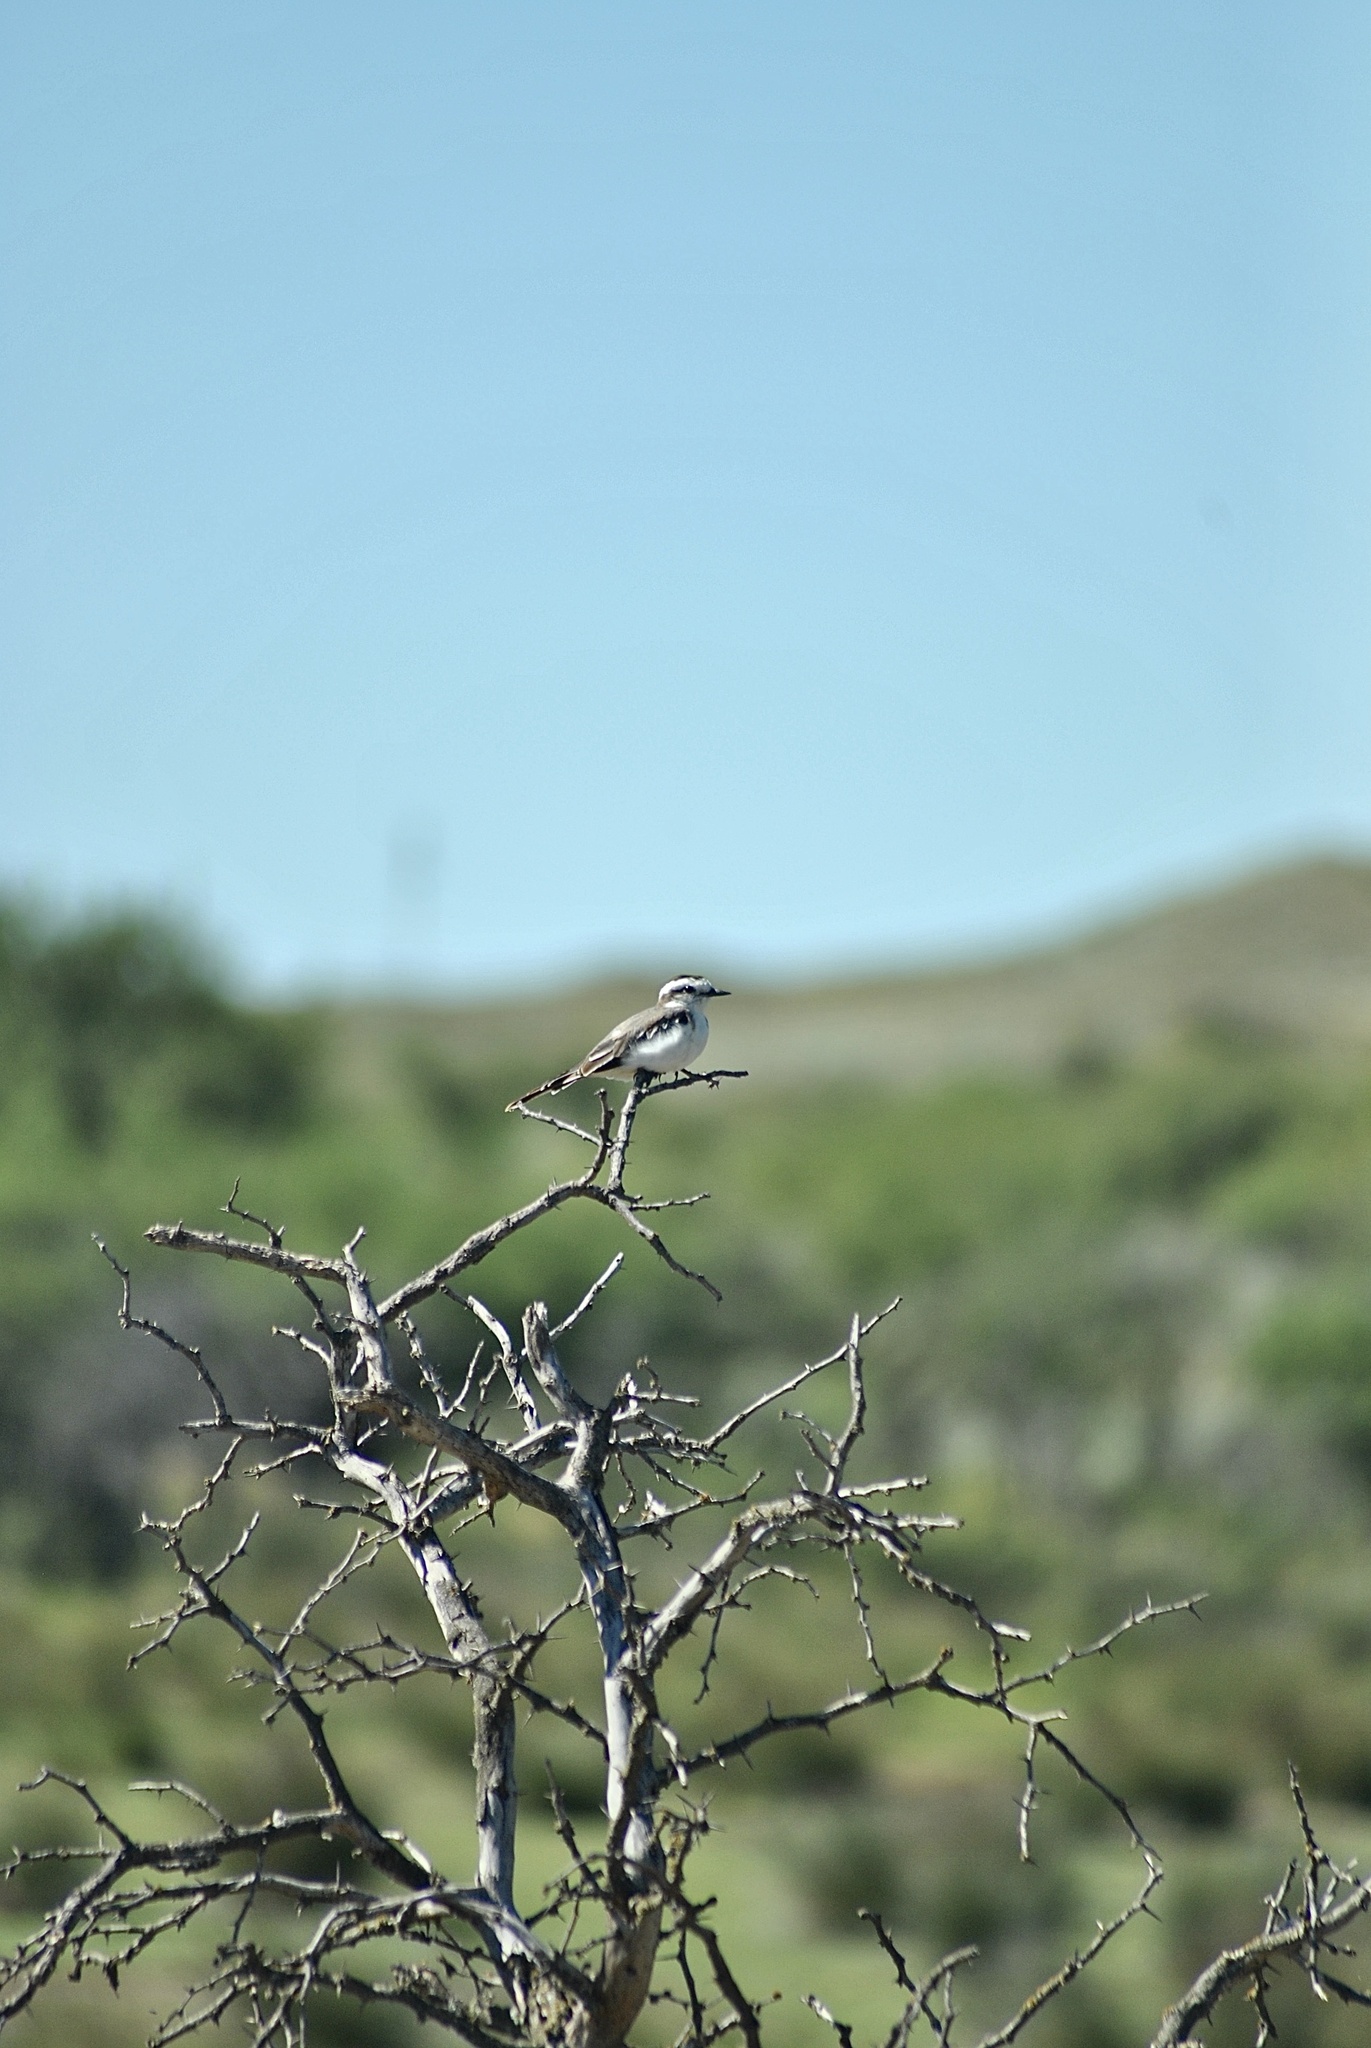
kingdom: Animalia
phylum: Chordata
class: Aves
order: Passeriformes
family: Tyrannidae
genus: Xolmis
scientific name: Xolmis coronatus
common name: Black-crowned monjita
